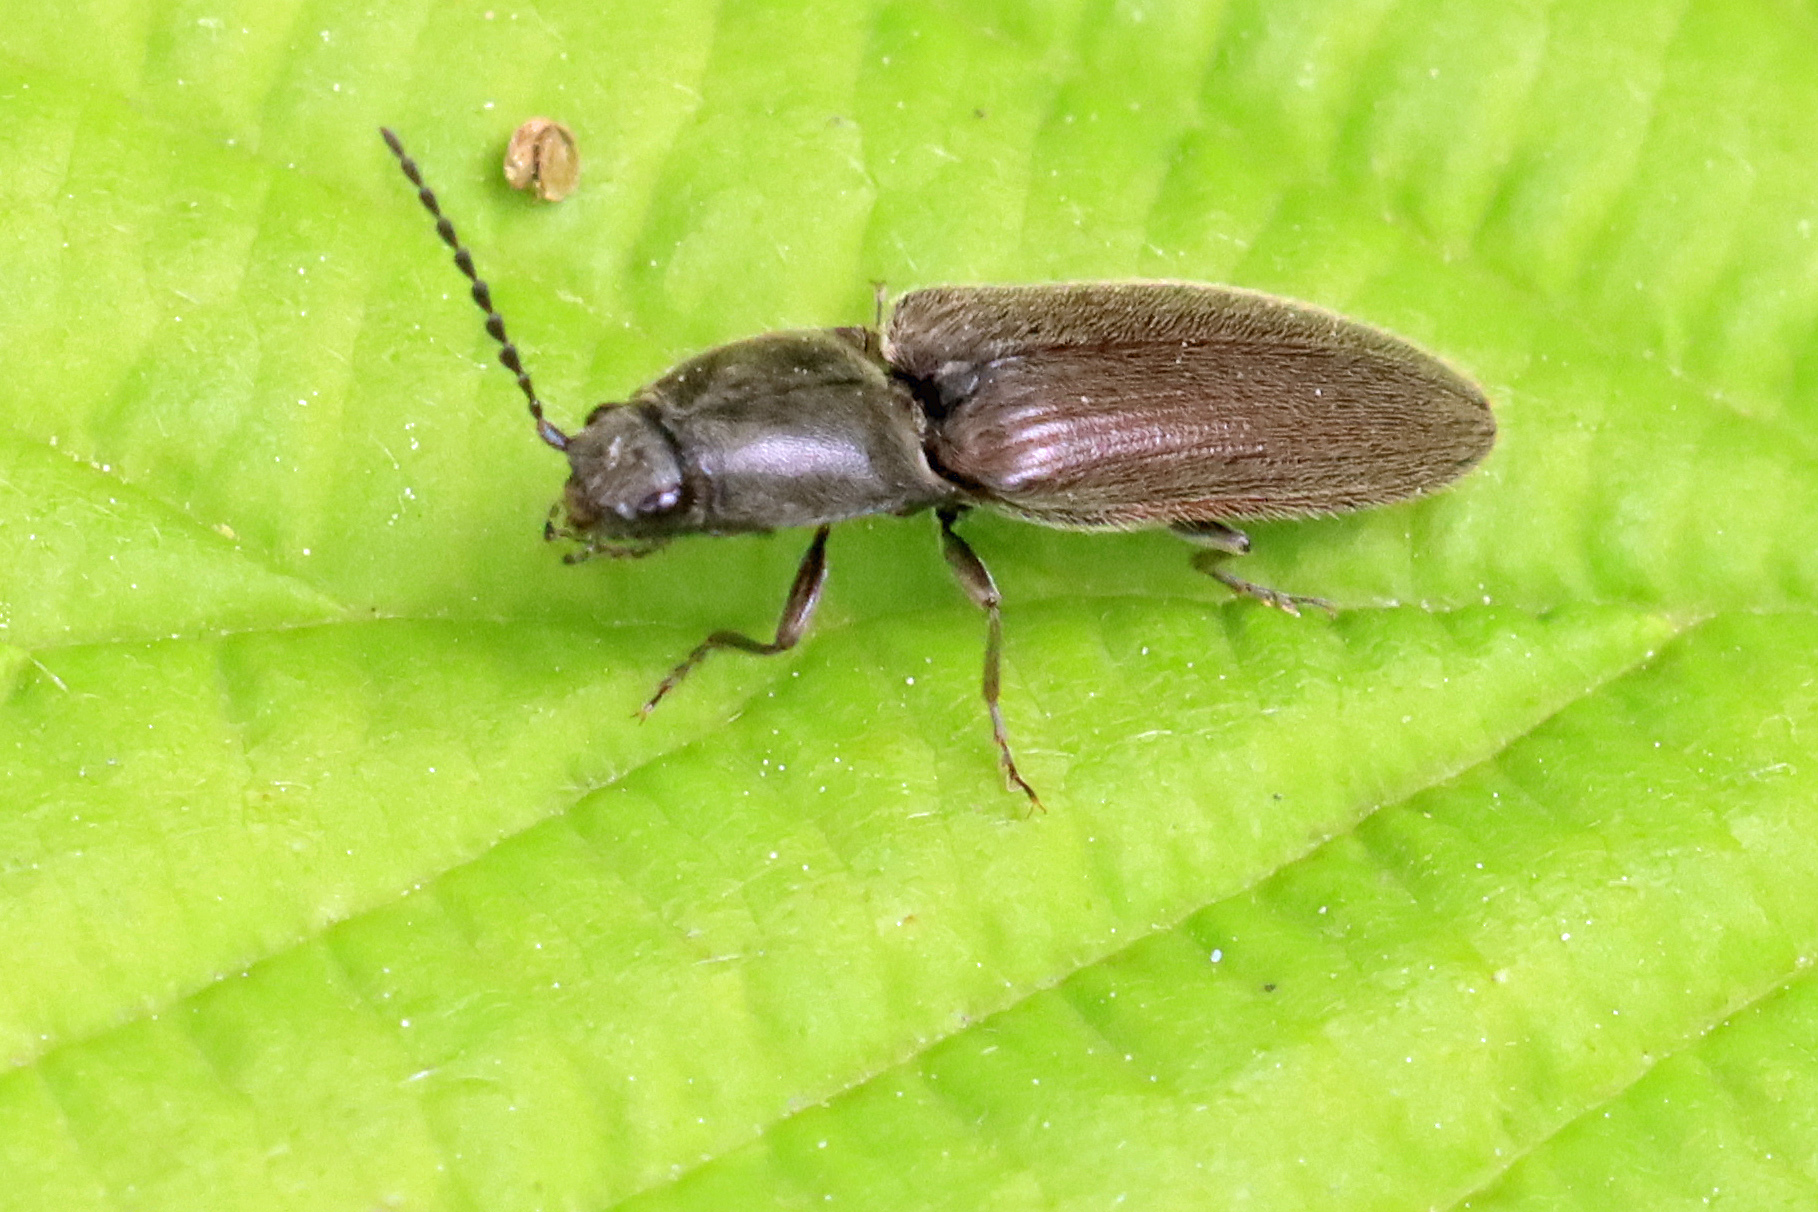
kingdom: Animalia
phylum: Arthropoda
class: Insecta
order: Coleoptera
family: Elateridae
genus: Athous
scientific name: Athous haemorrhoidalis
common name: Red-brown click beetle
